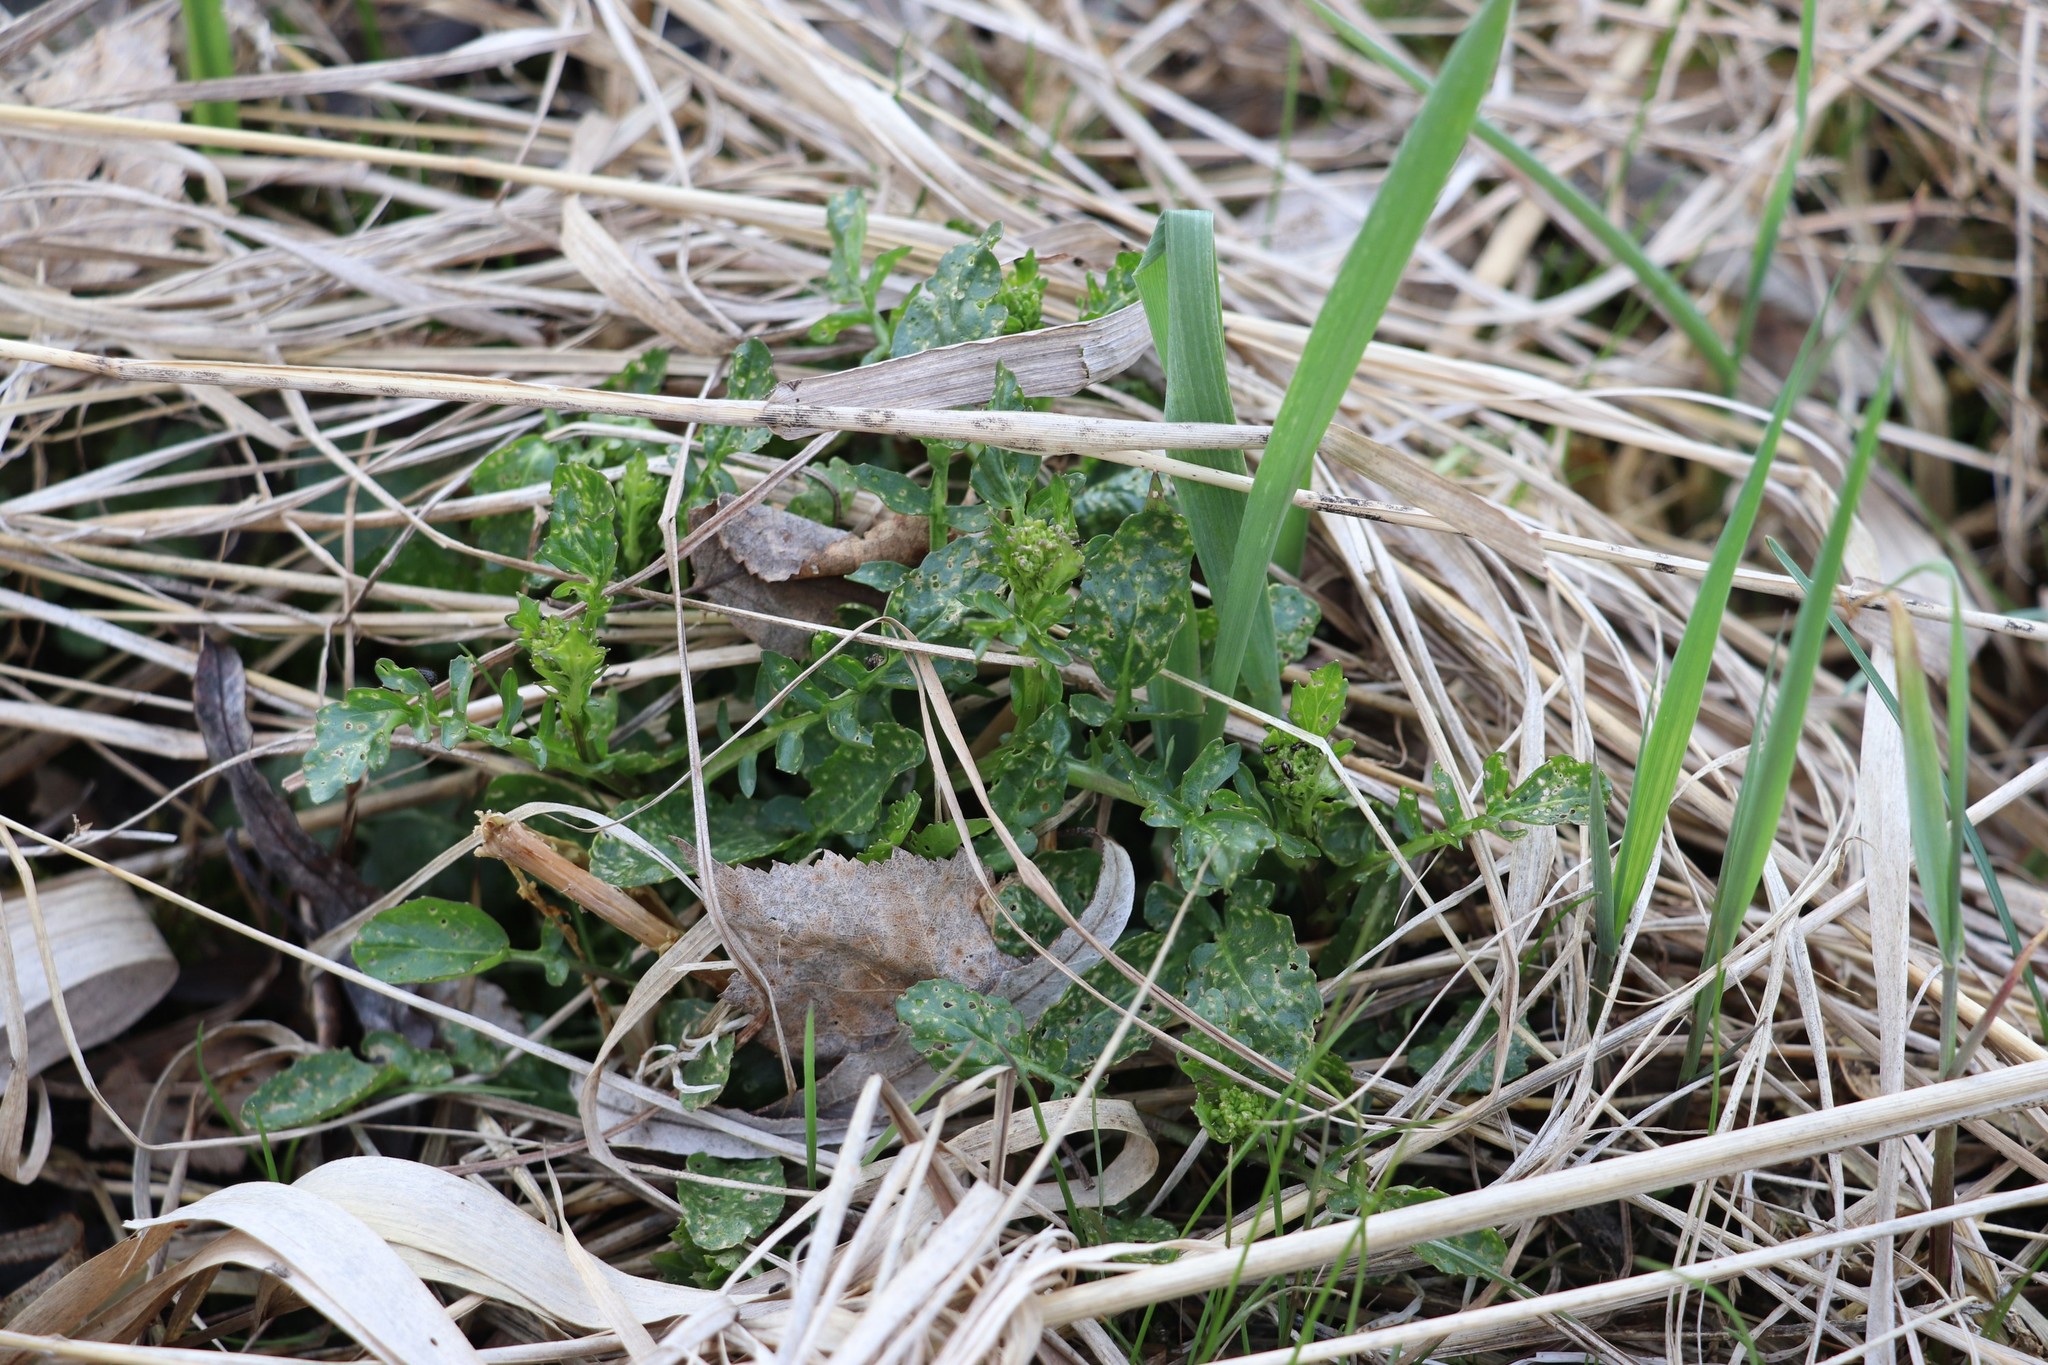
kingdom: Plantae
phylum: Tracheophyta
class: Magnoliopsida
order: Brassicales
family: Brassicaceae
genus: Barbarea
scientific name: Barbarea vulgaris
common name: Cressy-greens
